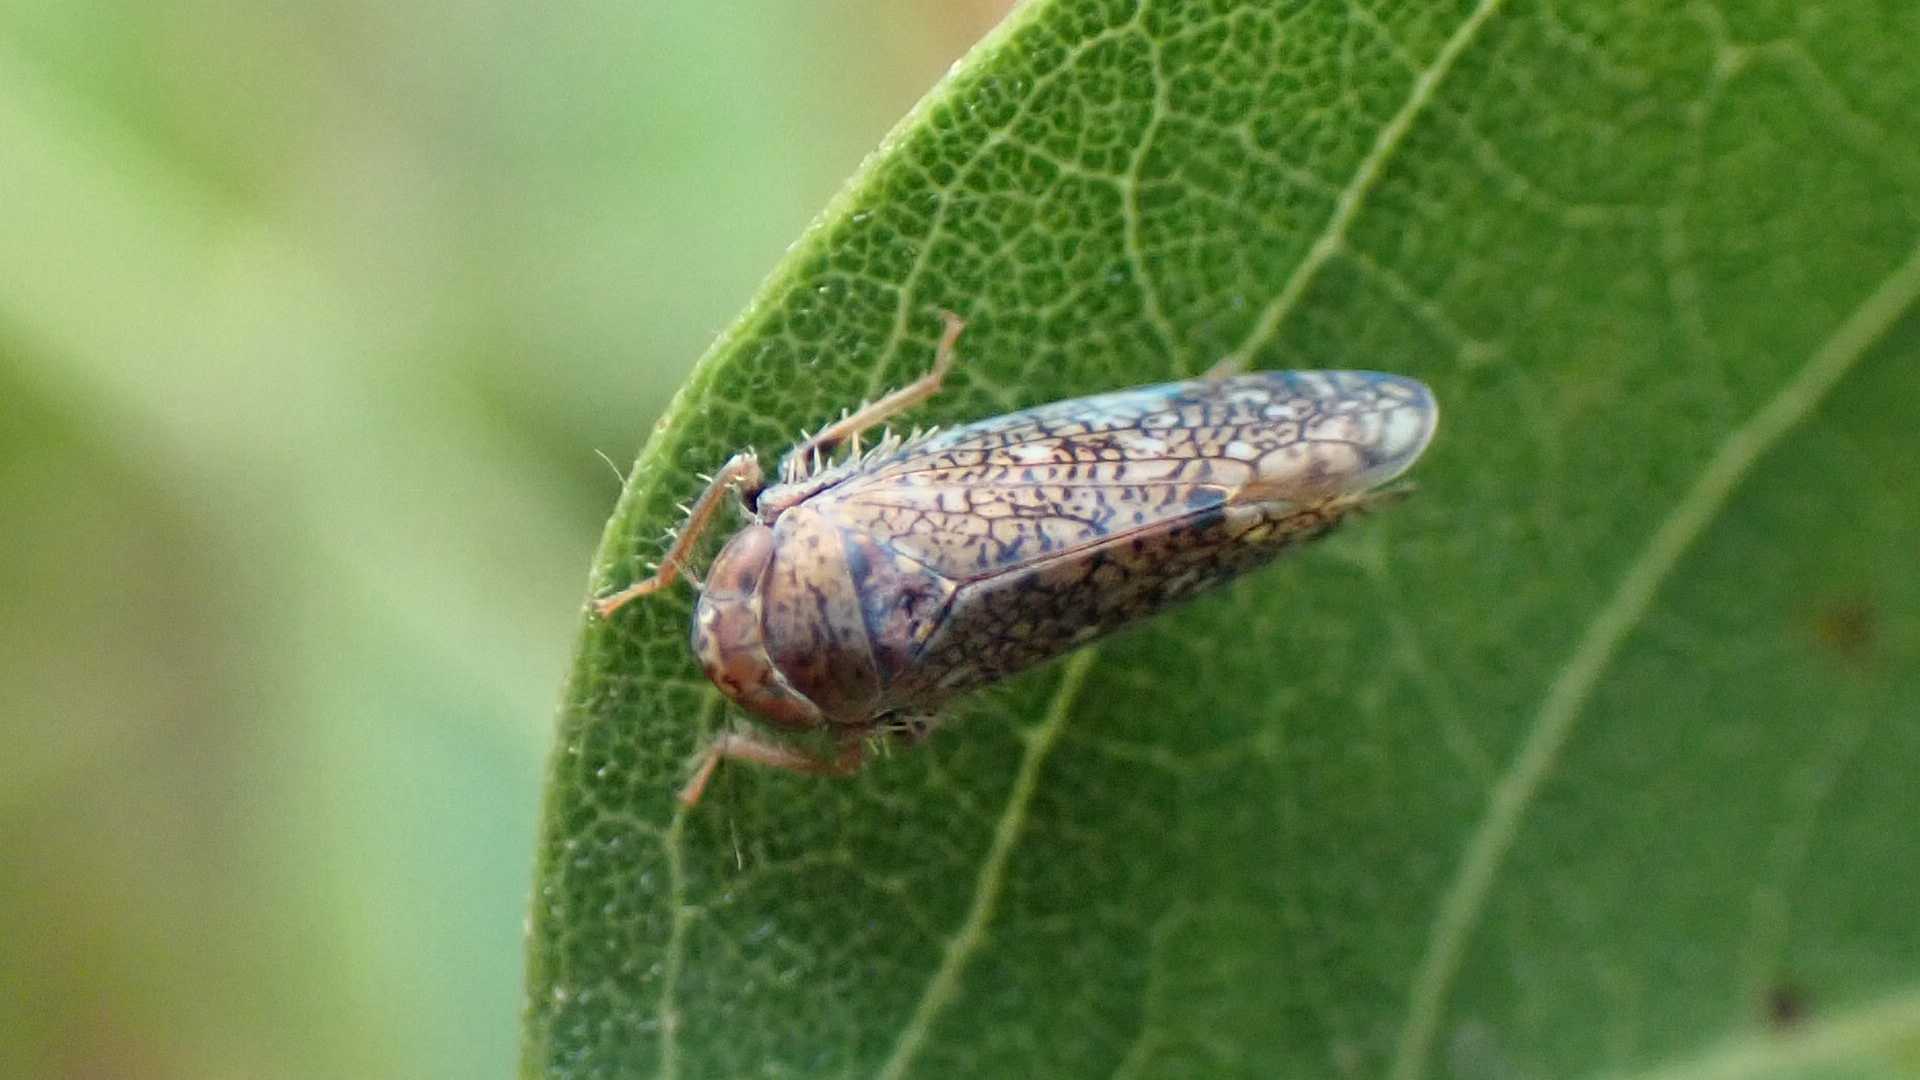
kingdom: Animalia
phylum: Arthropoda
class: Insecta
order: Hemiptera
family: Cicadellidae
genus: Orientus
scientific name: Orientus ishidae
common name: Japanese leafhopper
